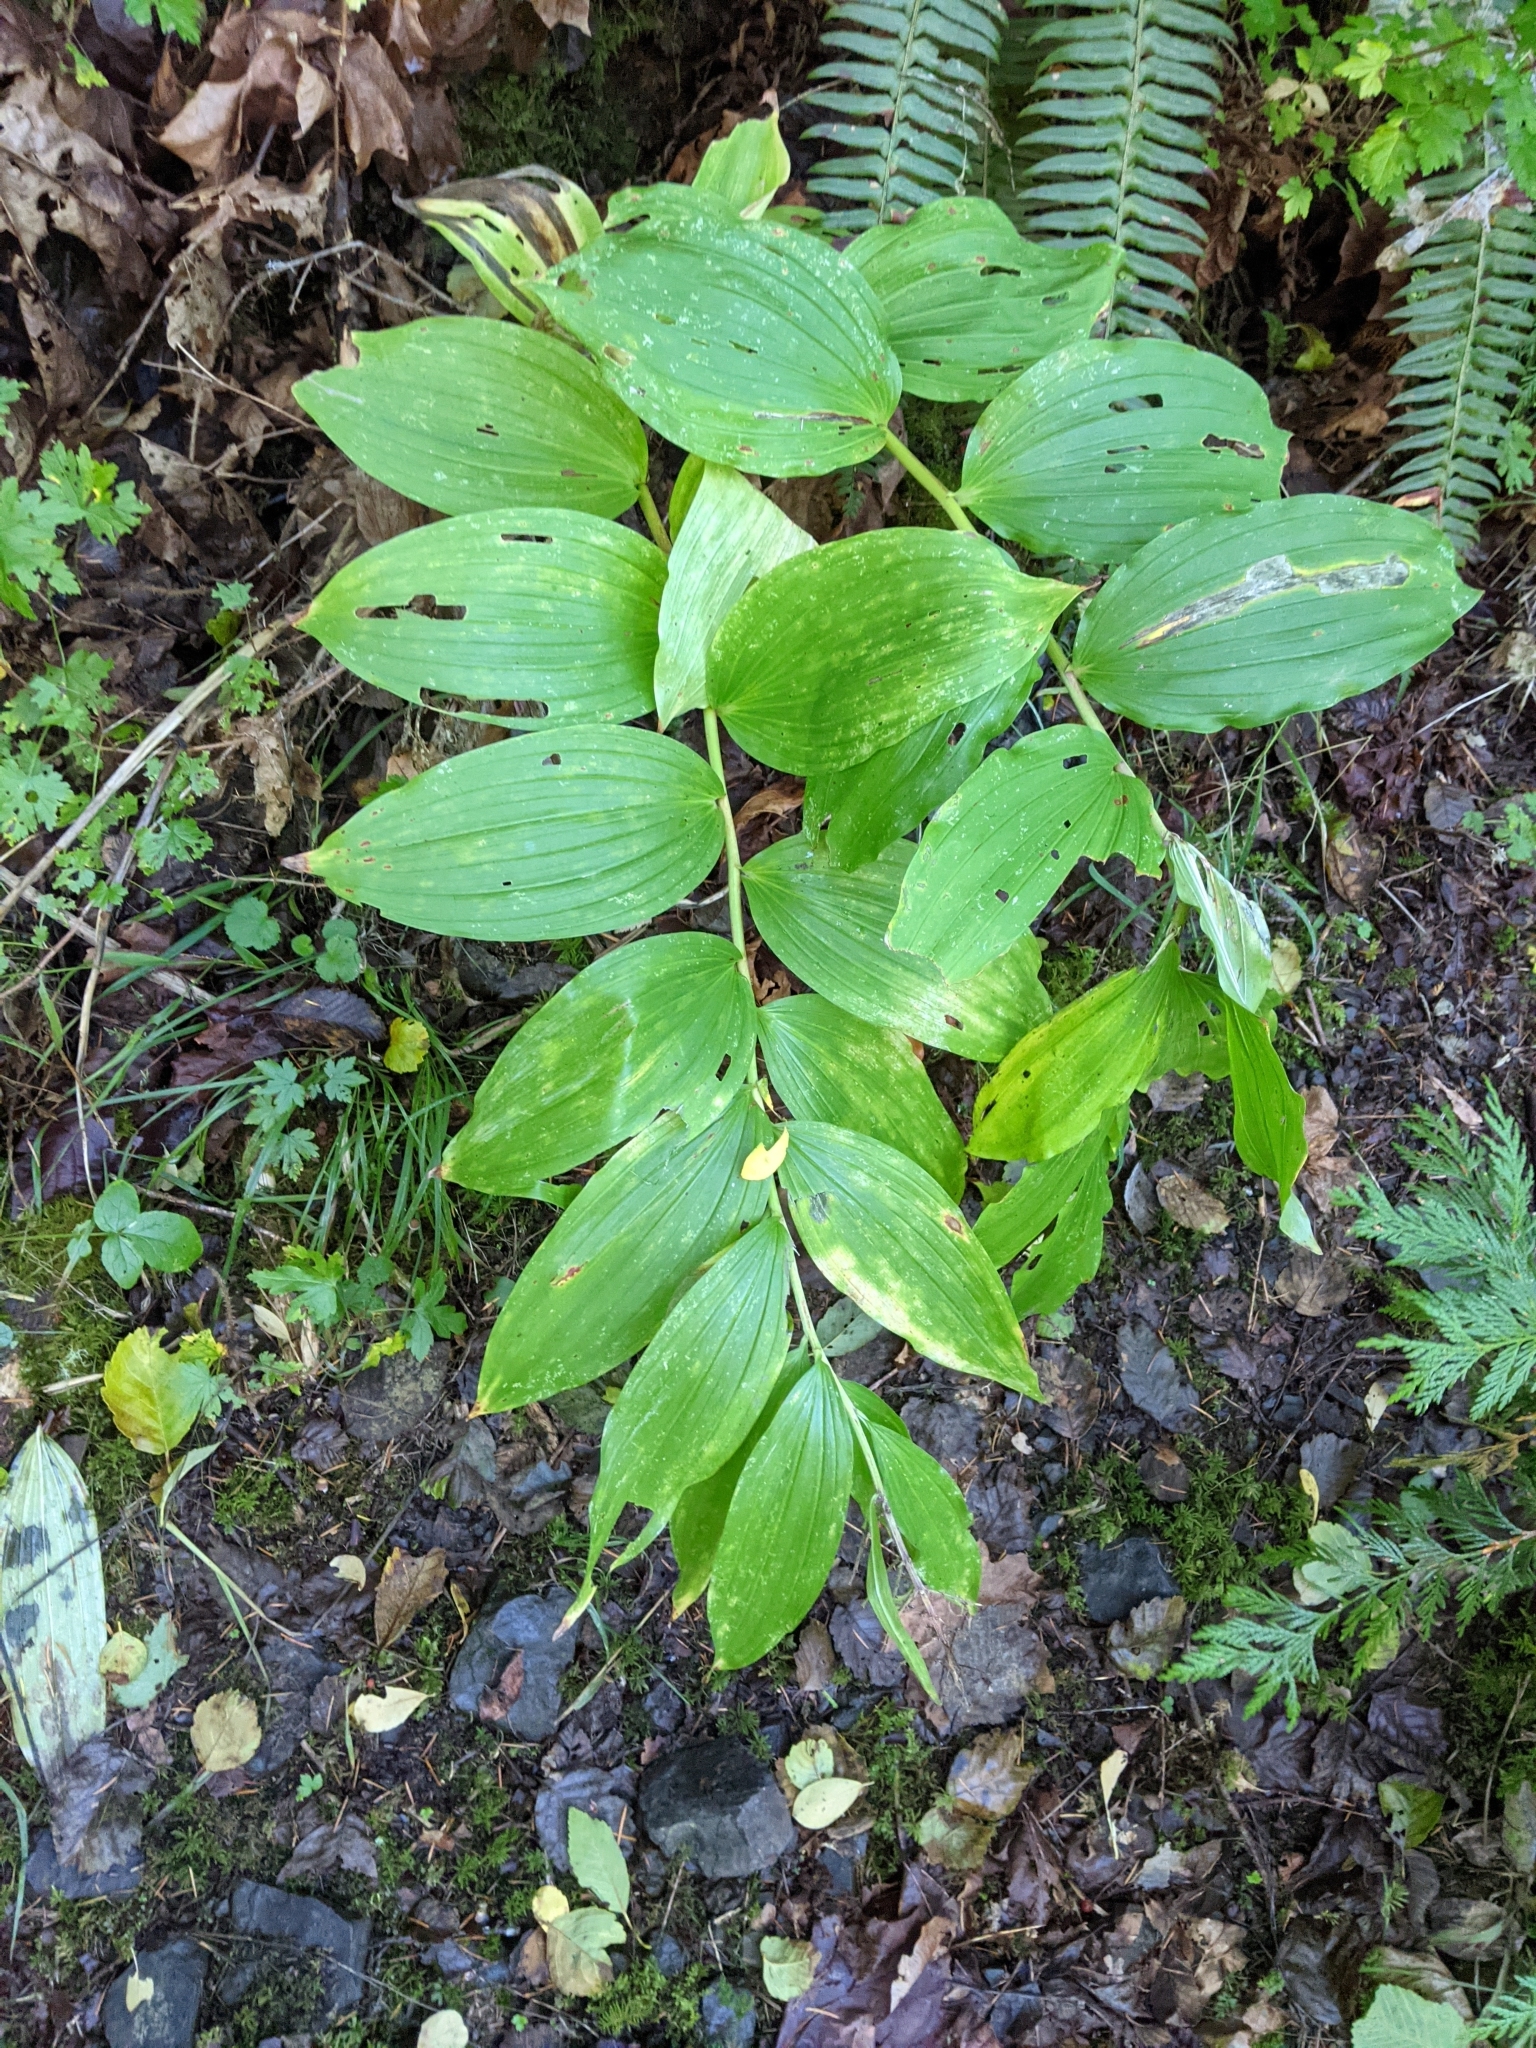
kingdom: Plantae
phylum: Tracheophyta
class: Liliopsida
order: Asparagales
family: Asparagaceae
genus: Maianthemum
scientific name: Maianthemum racemosum
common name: False spikenard
